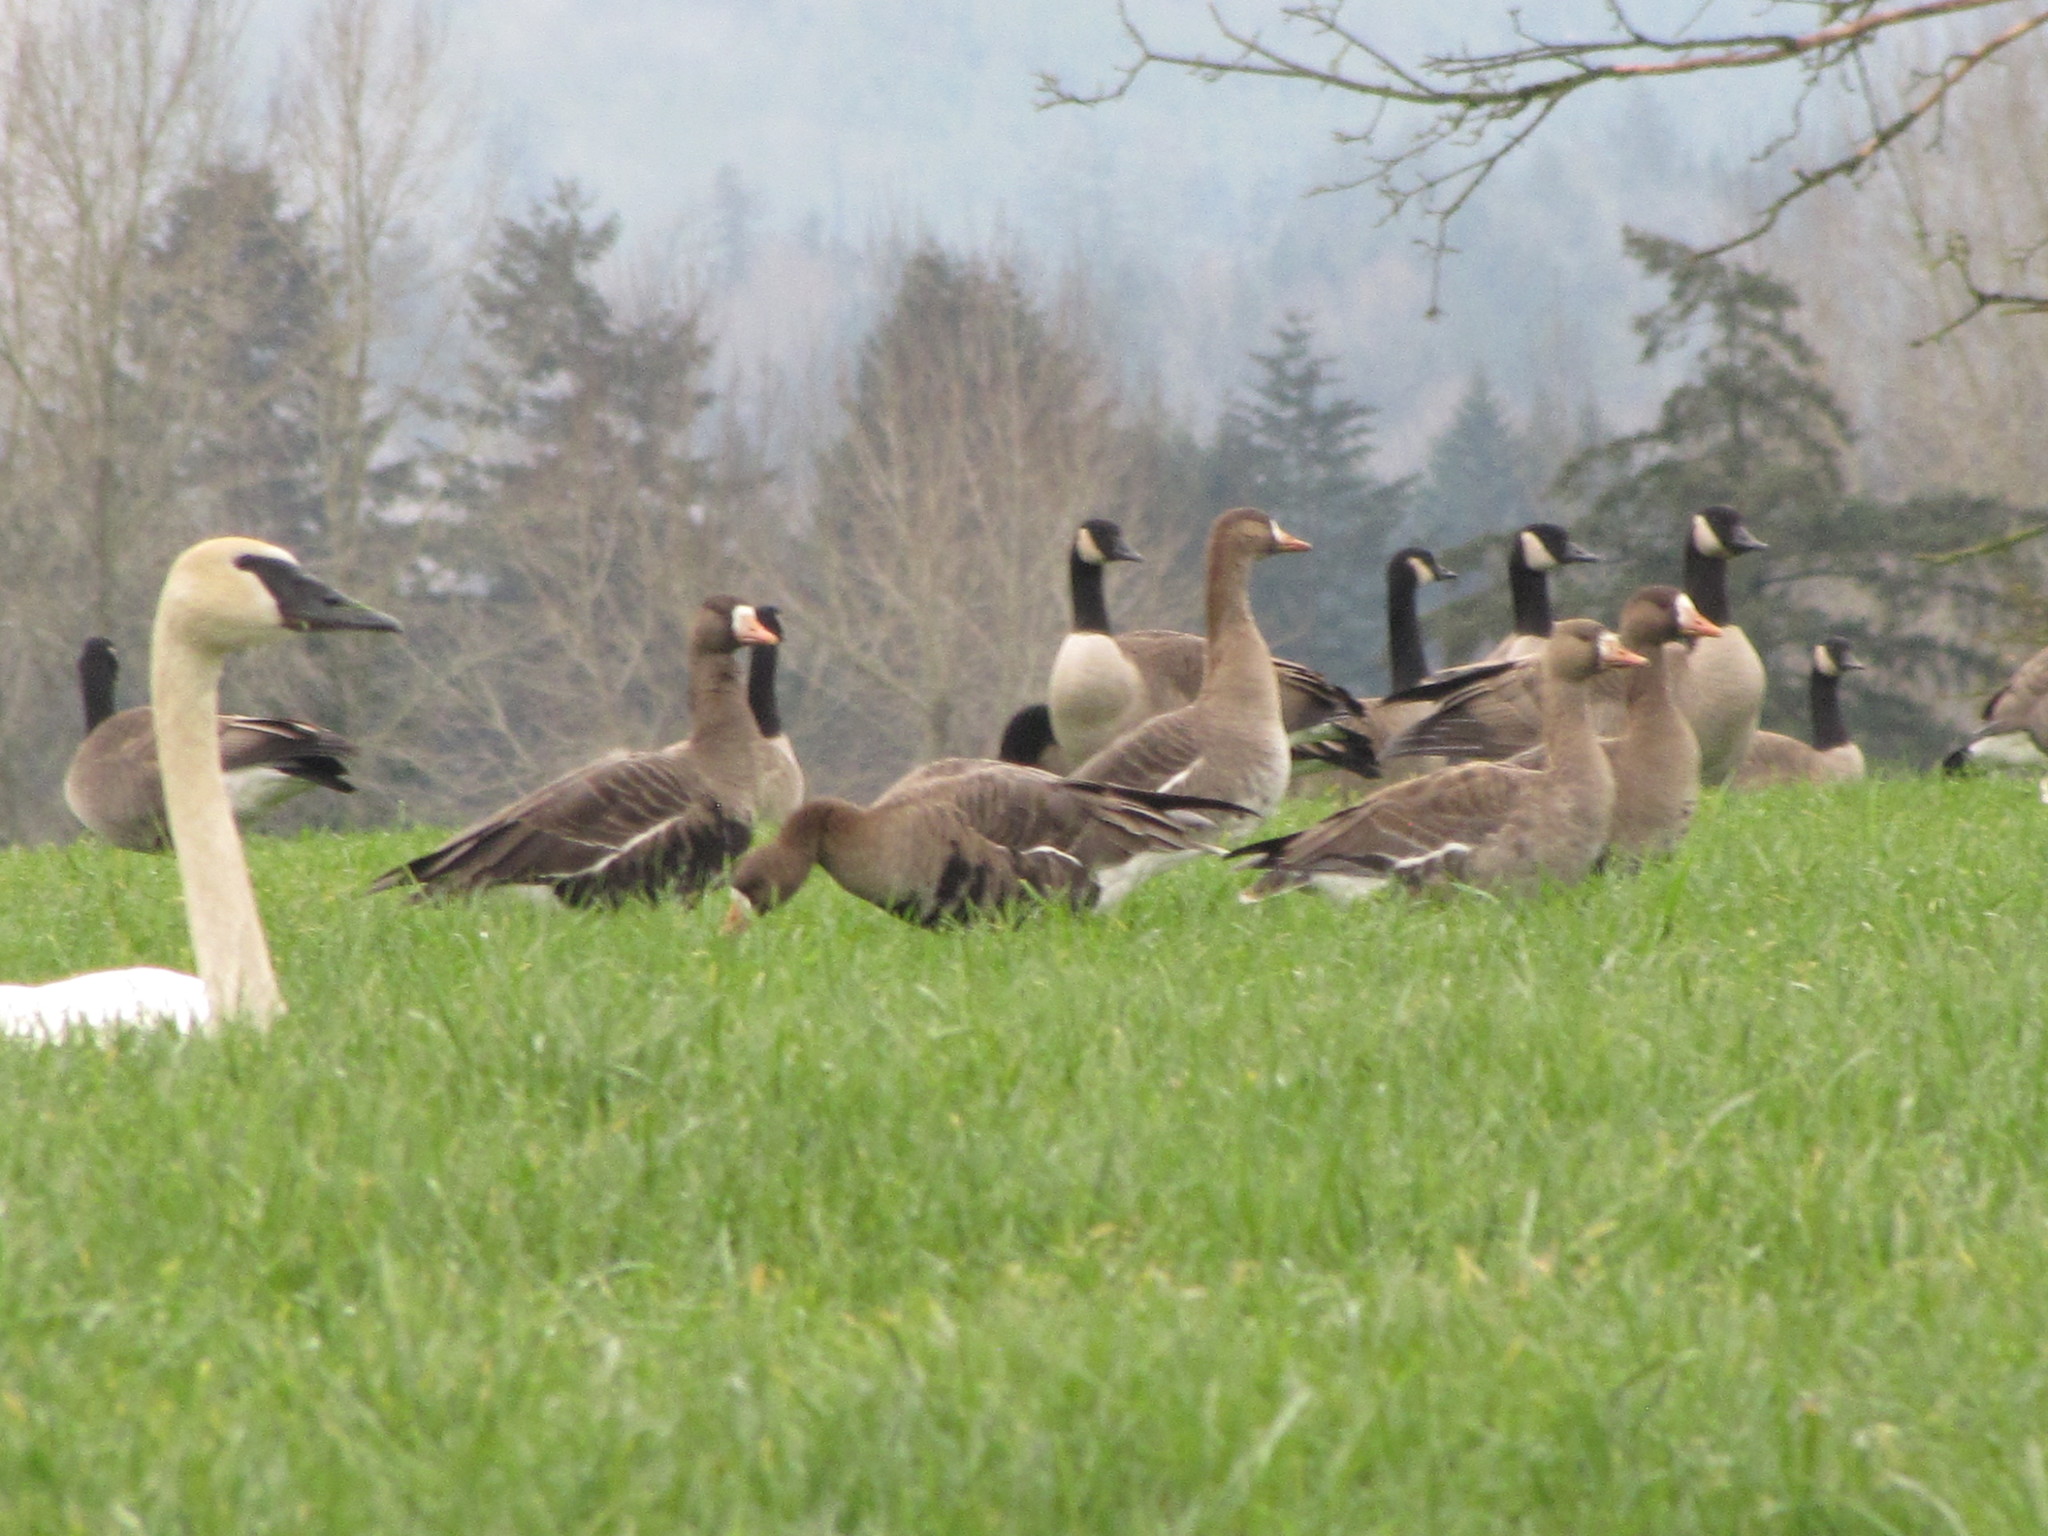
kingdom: Animalia
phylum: Chordata
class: Aves
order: Anseriformes
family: Anatidae
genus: Cygnus
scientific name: Cygnus buccinator
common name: Trumpeter swan
